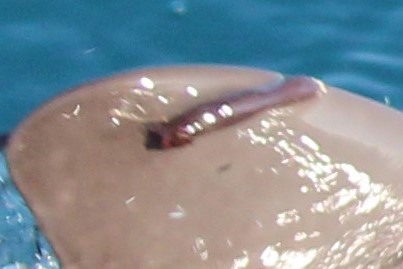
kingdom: Animalia
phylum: Arthropoda
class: Maxillopoda
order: Sessilia
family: Coronulidae
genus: Xenobalanus
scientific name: Xenobalanus globicipitis
